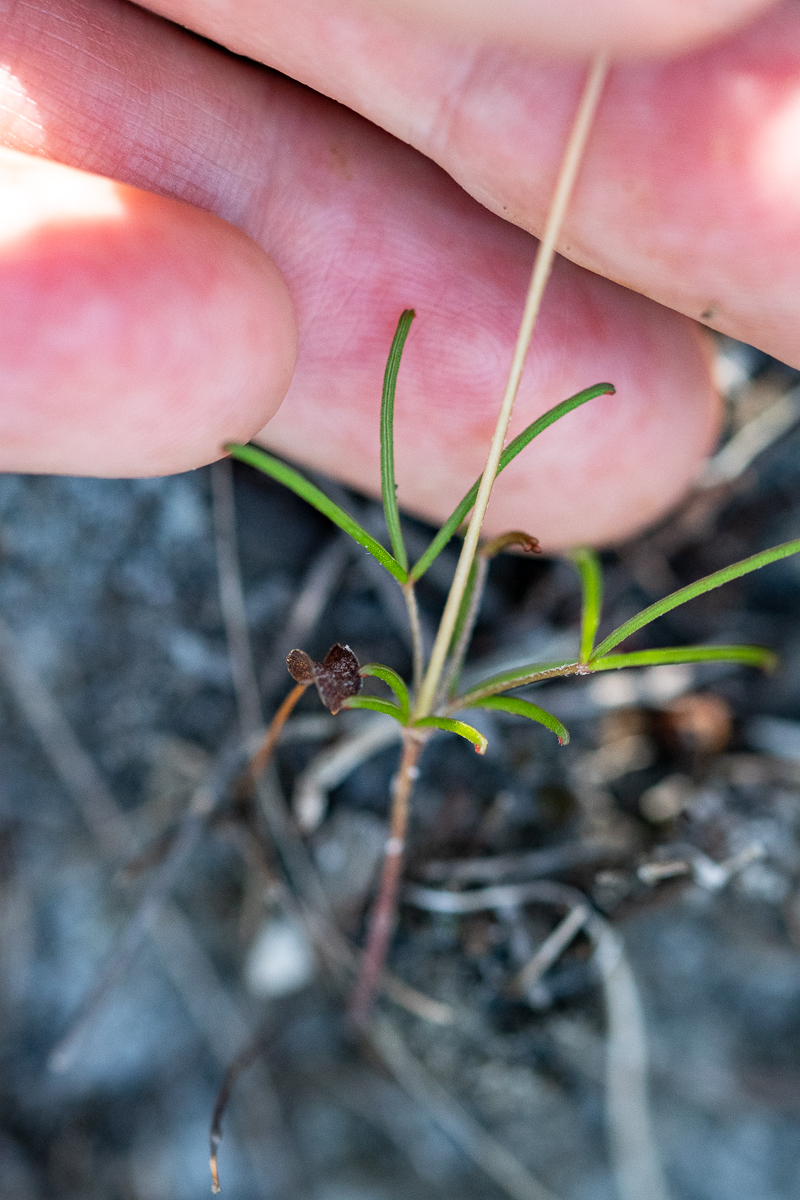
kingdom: Plantae
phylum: Tracheophyta
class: Magnoliopsida
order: Oxalidales
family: Oxalidaceae
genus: Oxalis
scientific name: Oxalis polyphylla
